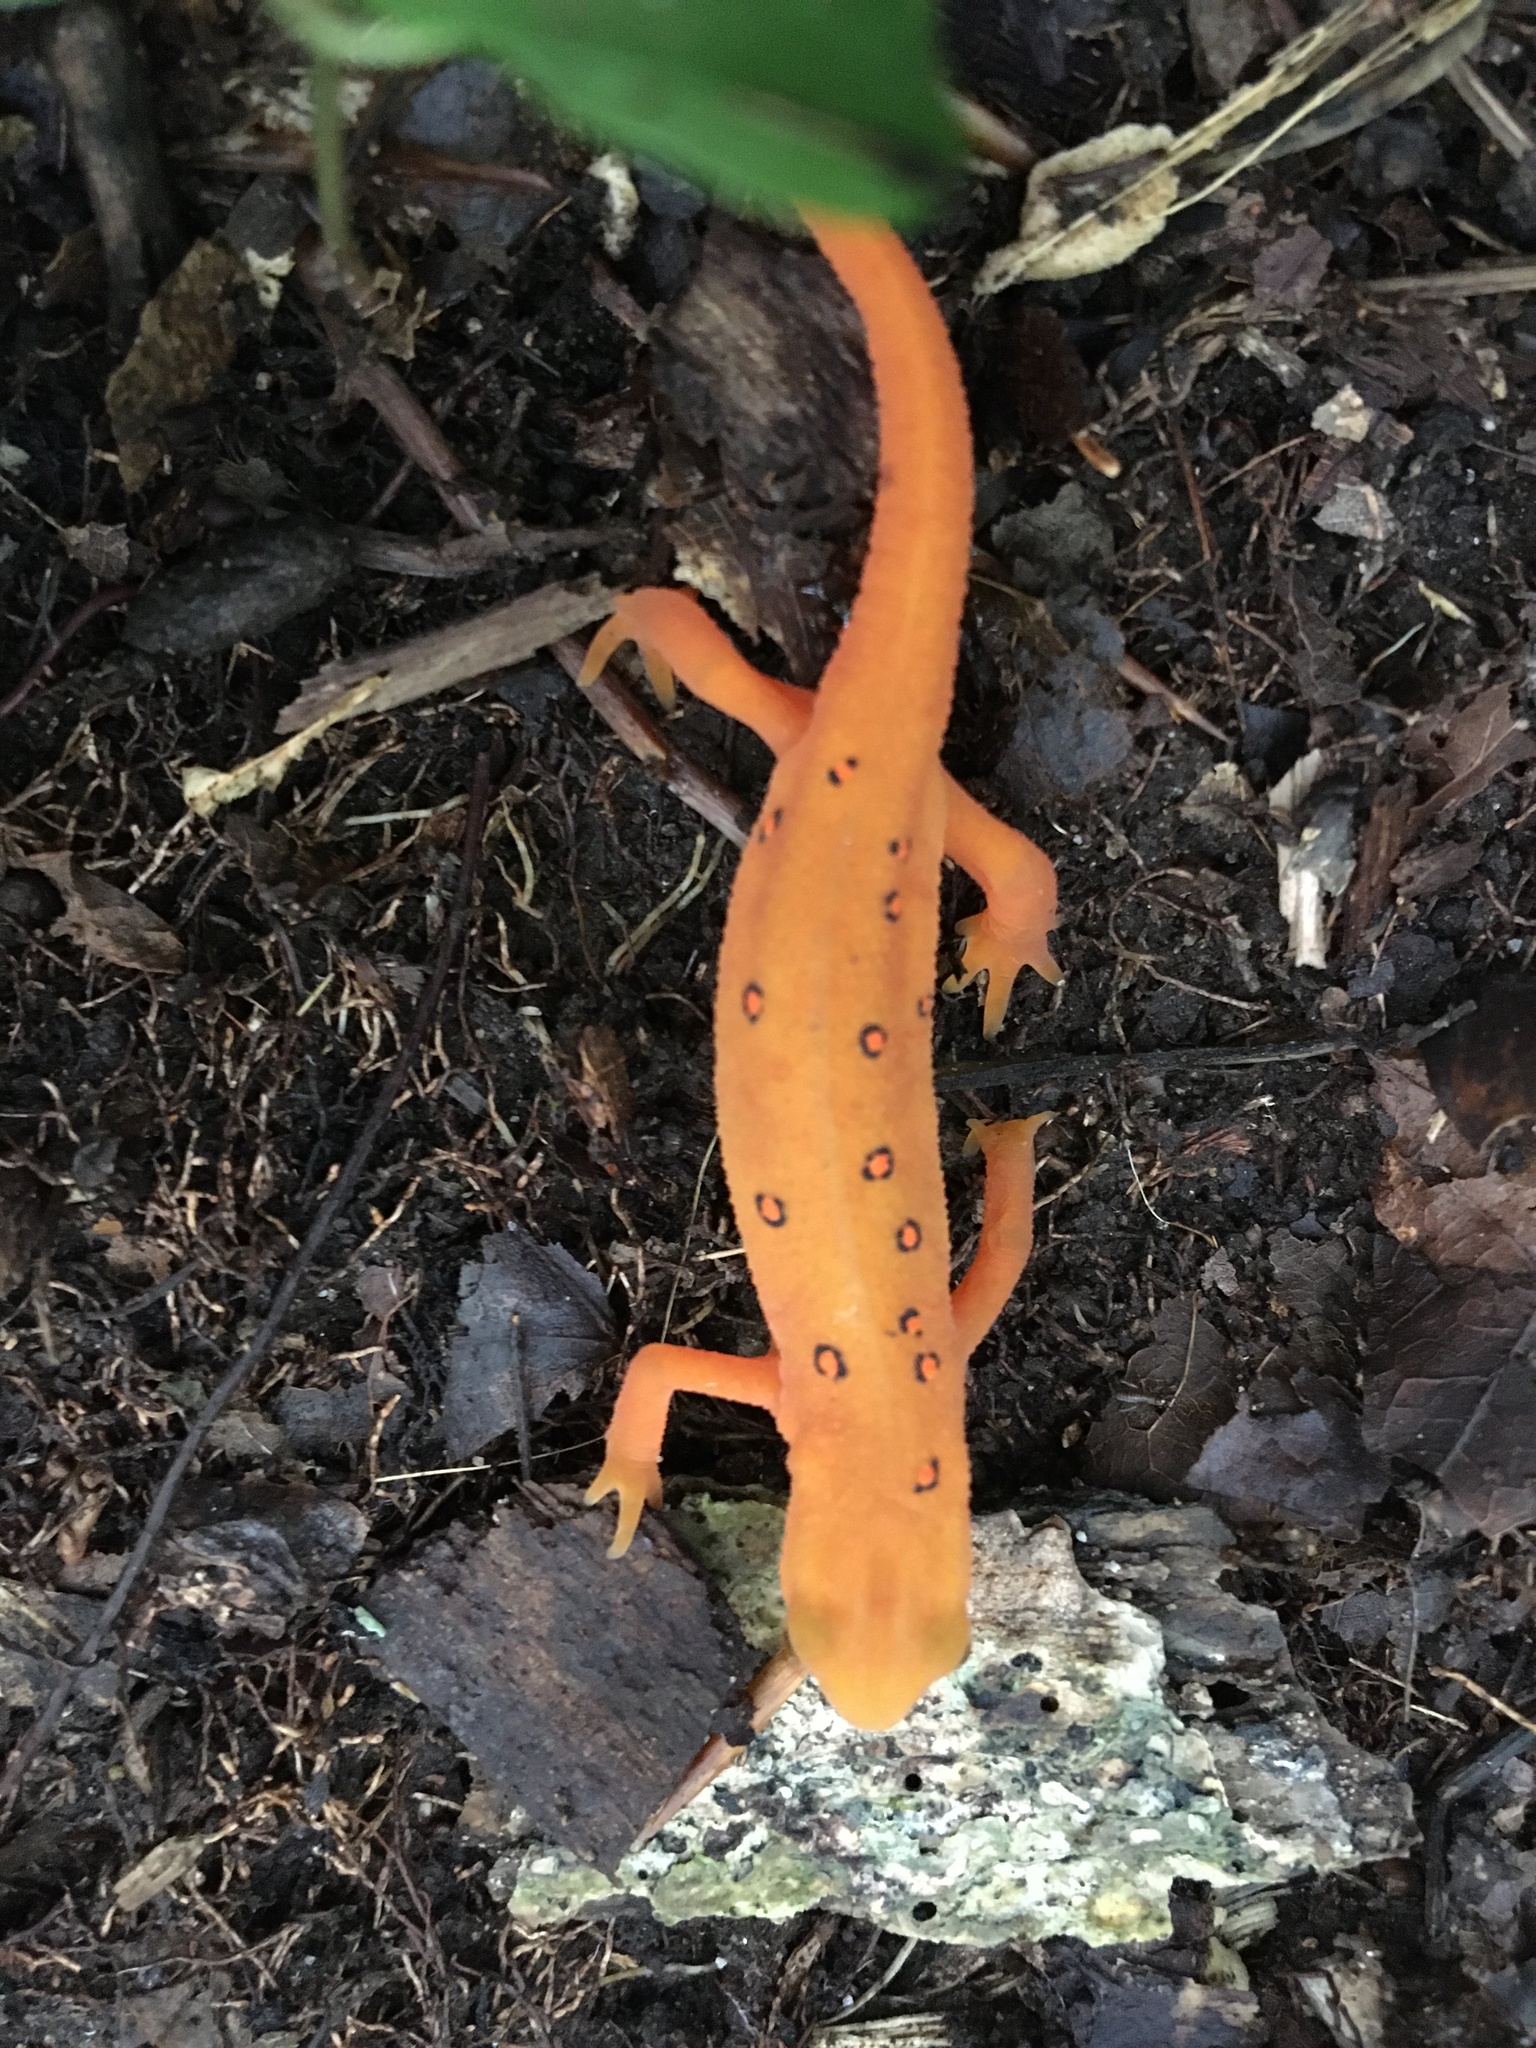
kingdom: Animalia
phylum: Chordata
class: Amphibia
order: Caudata
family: Salamandridae
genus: Notophthalmus
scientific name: Notophthalmus viridescens
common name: Eastern newt
